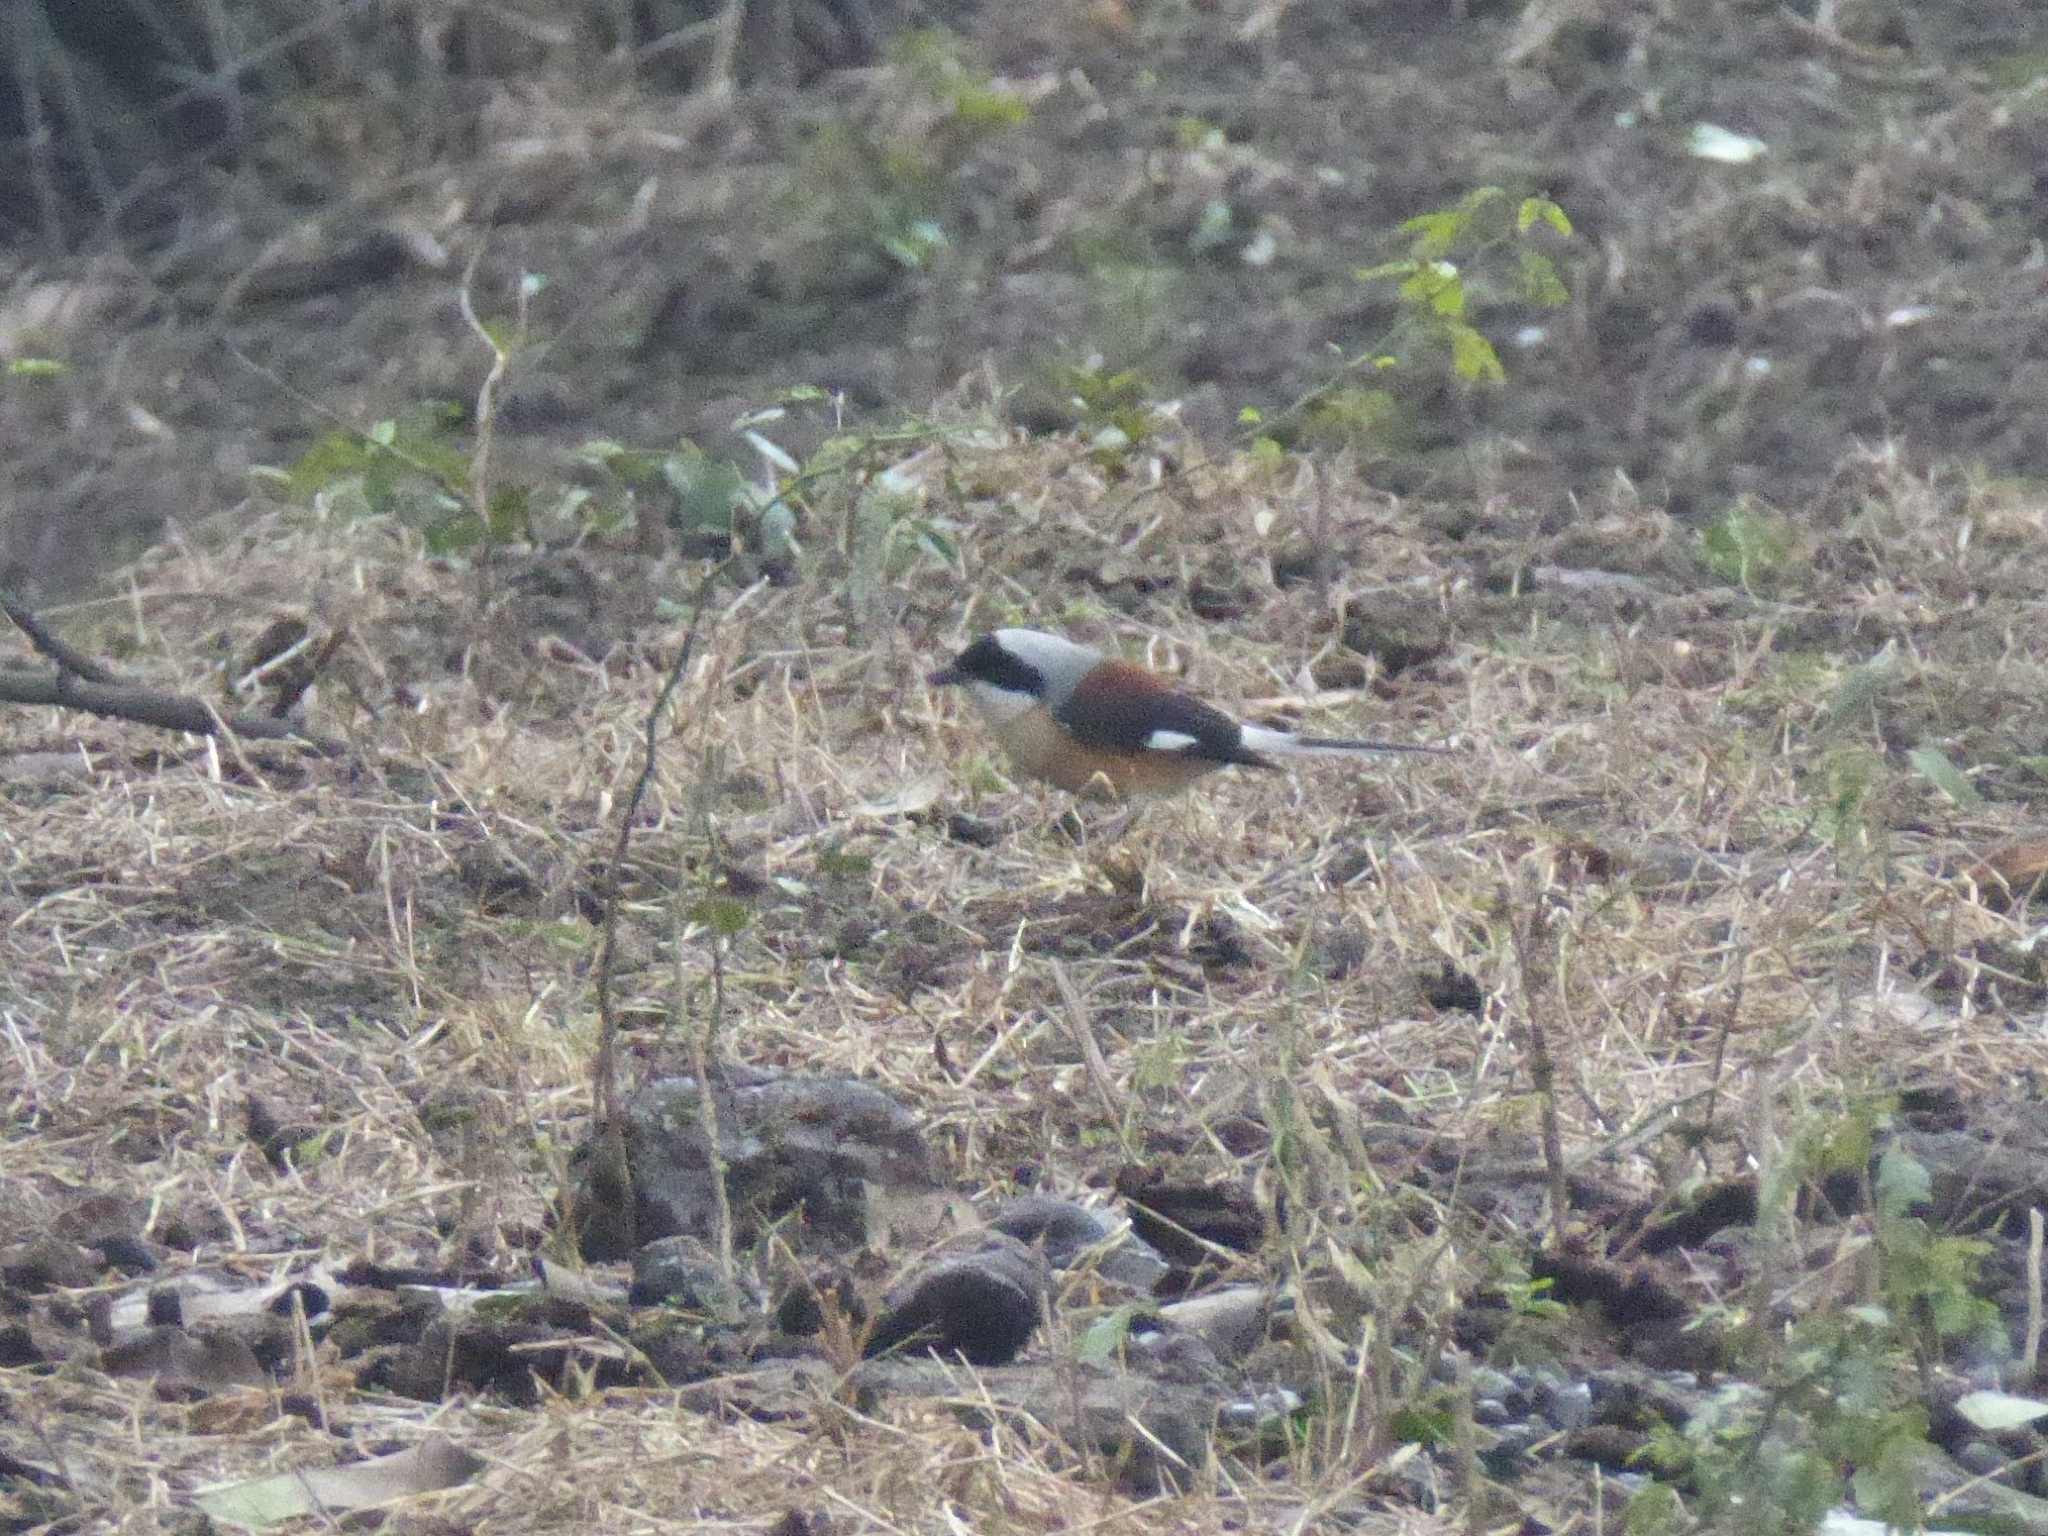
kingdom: Animalia
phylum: Chordata
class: Aves
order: Passeriformes
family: Laniidae
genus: Lanius
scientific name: Lanius vittatus
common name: Bay-backed shrike
